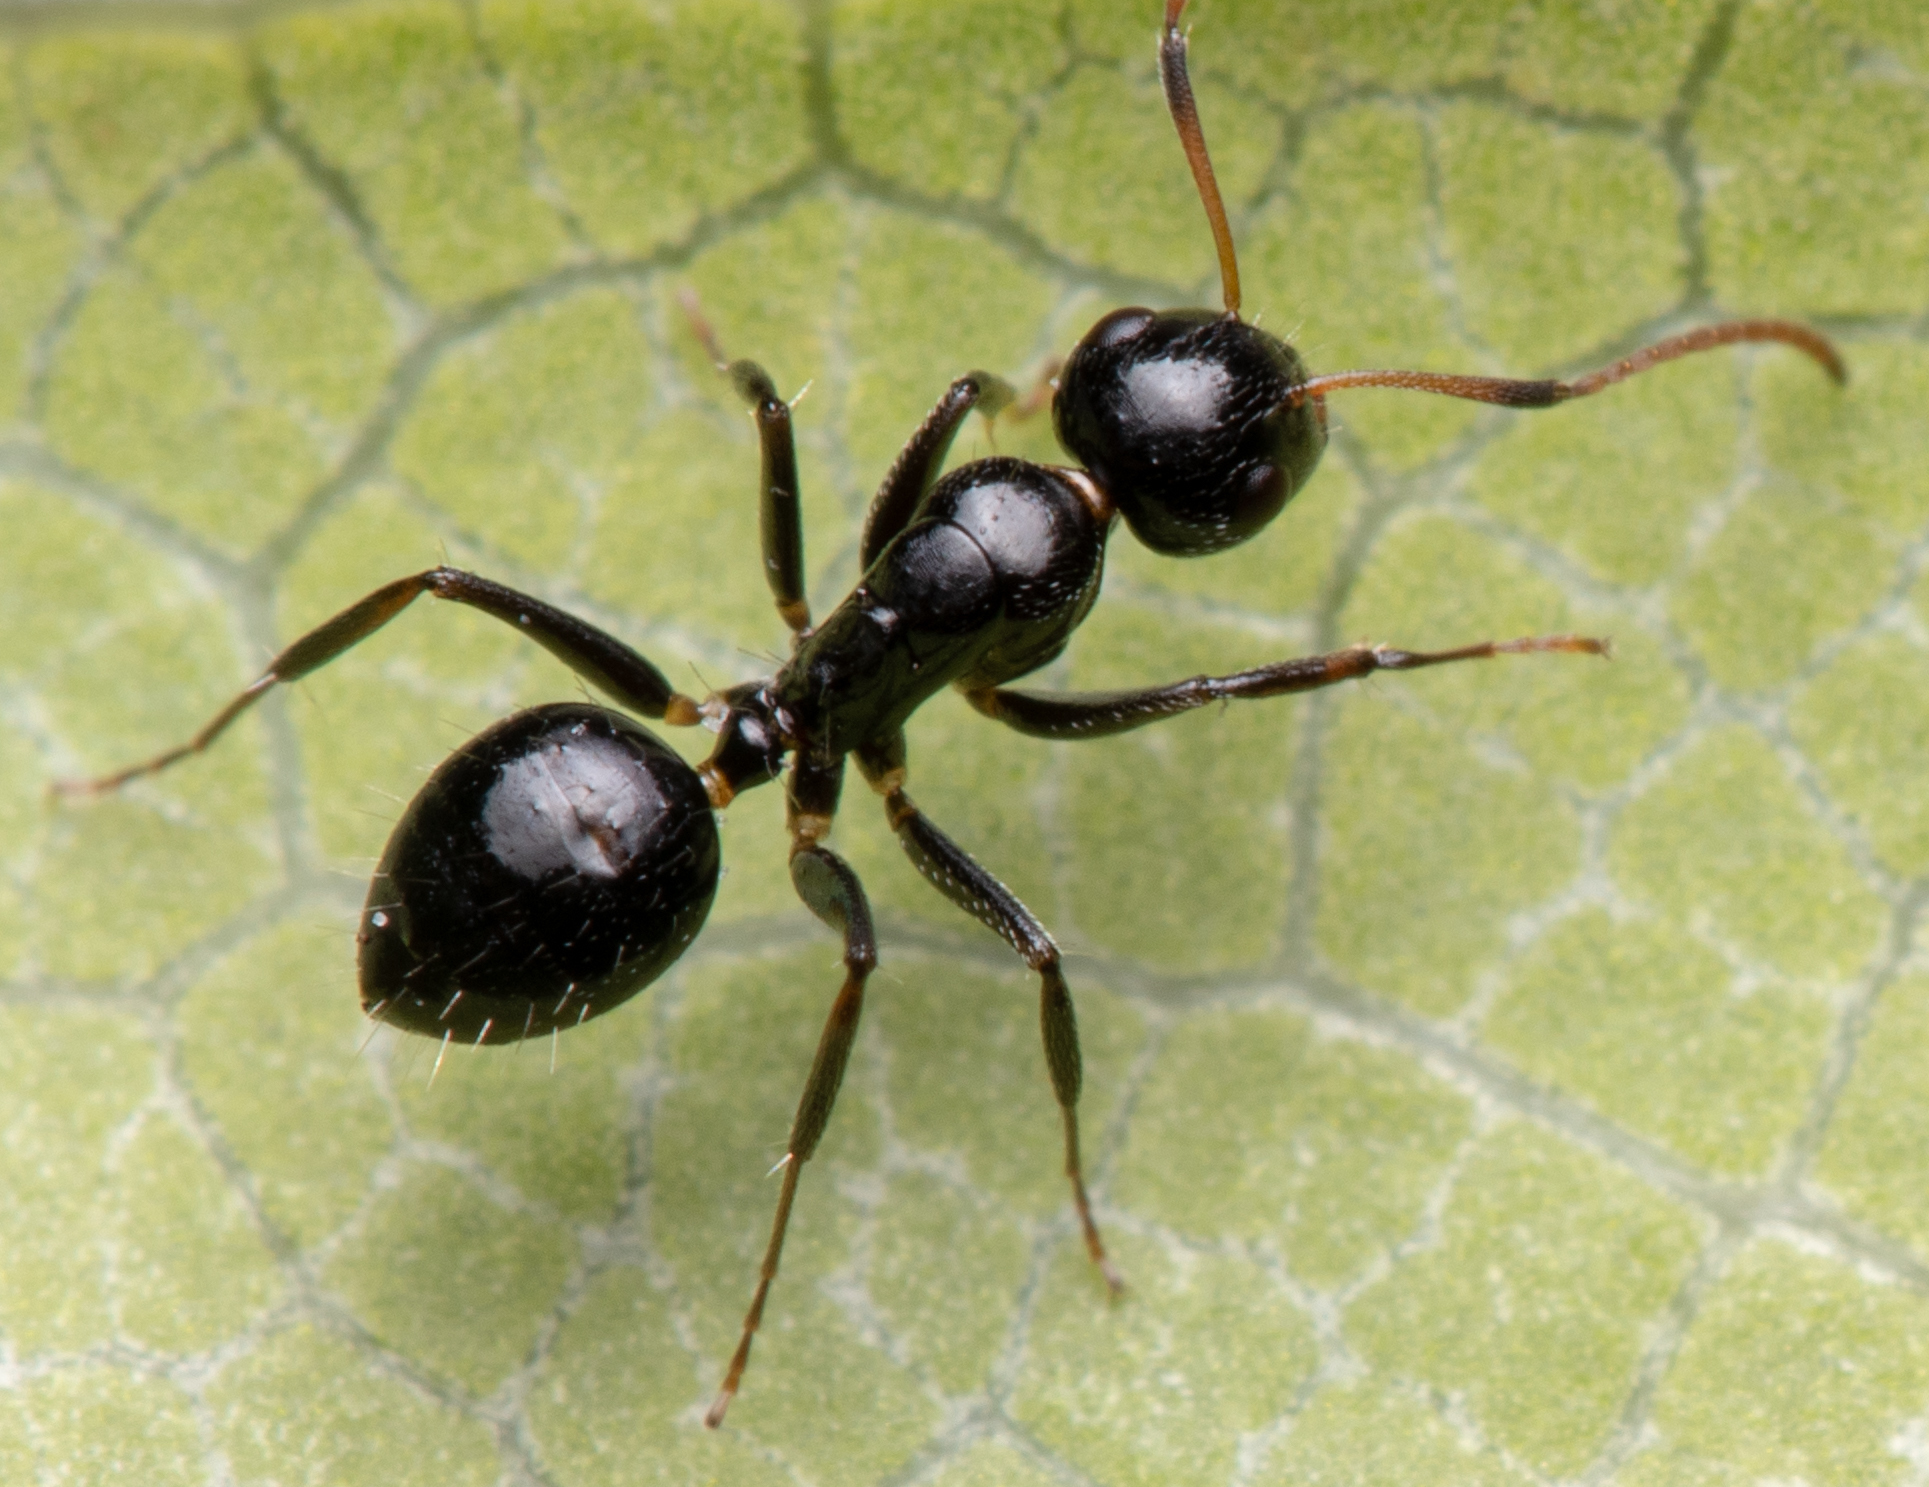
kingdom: Animalia
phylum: Arthropoda
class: Insecta
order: Hymenoptera
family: Formicidae
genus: Camponotus
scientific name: Camponotus mackayensis
